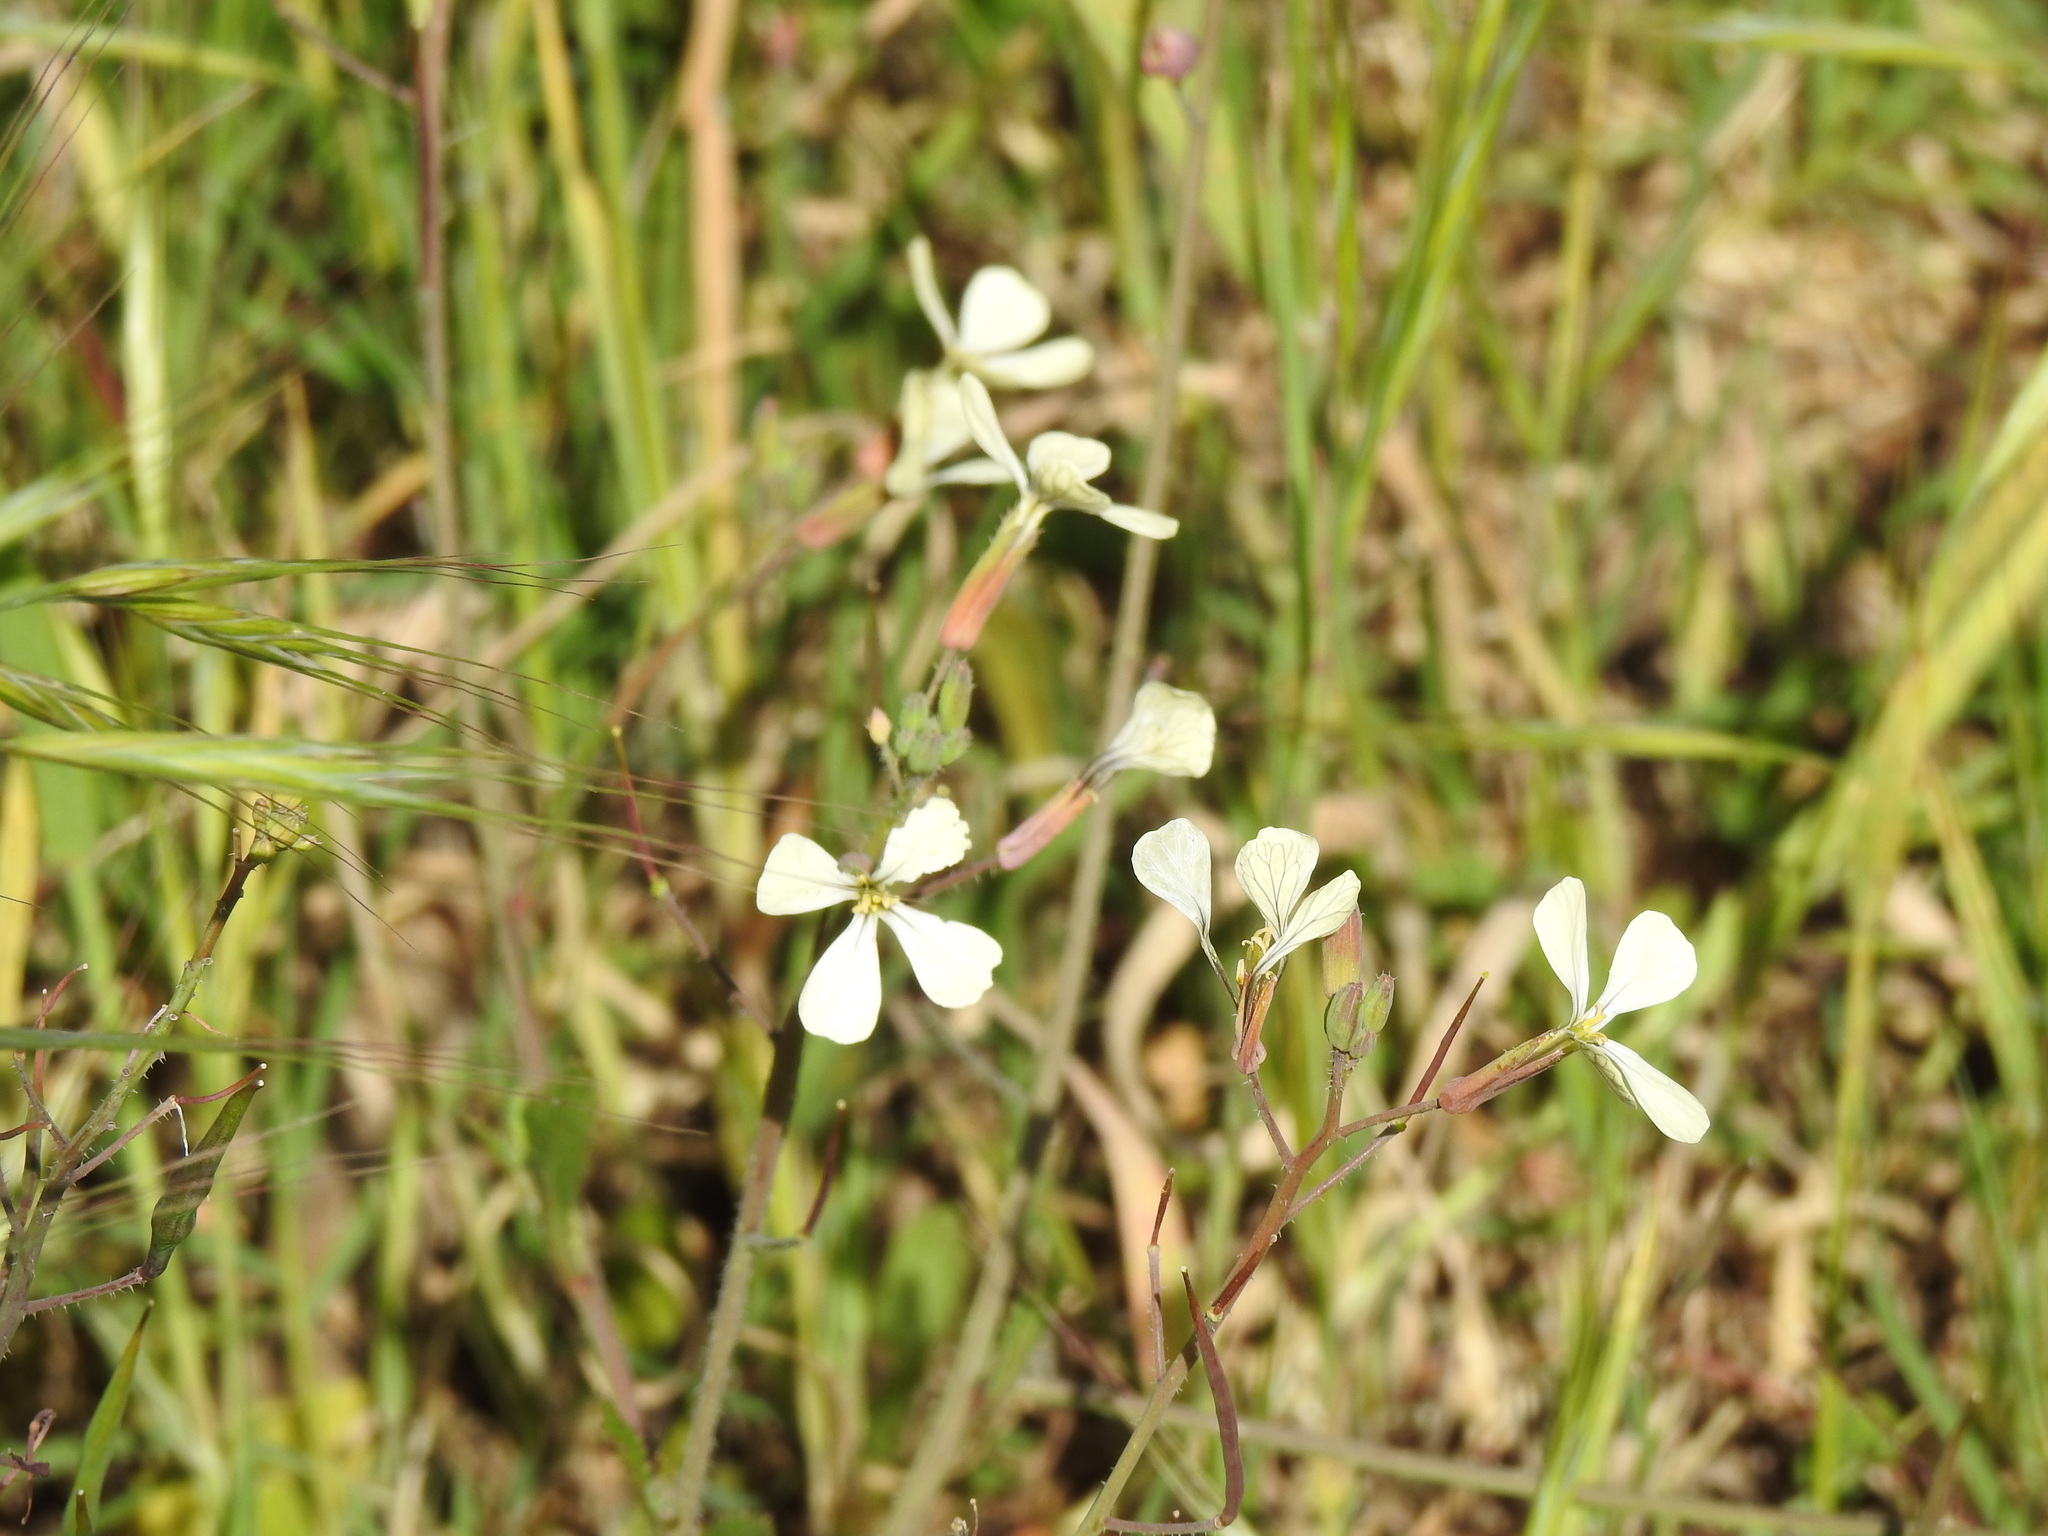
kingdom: Plantae
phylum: Tracheophyta
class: Magnoliopsida
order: Brassicales
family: Brassicaceae
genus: Raphanus
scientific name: Raphanus raphanistrum
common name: Wild radish
